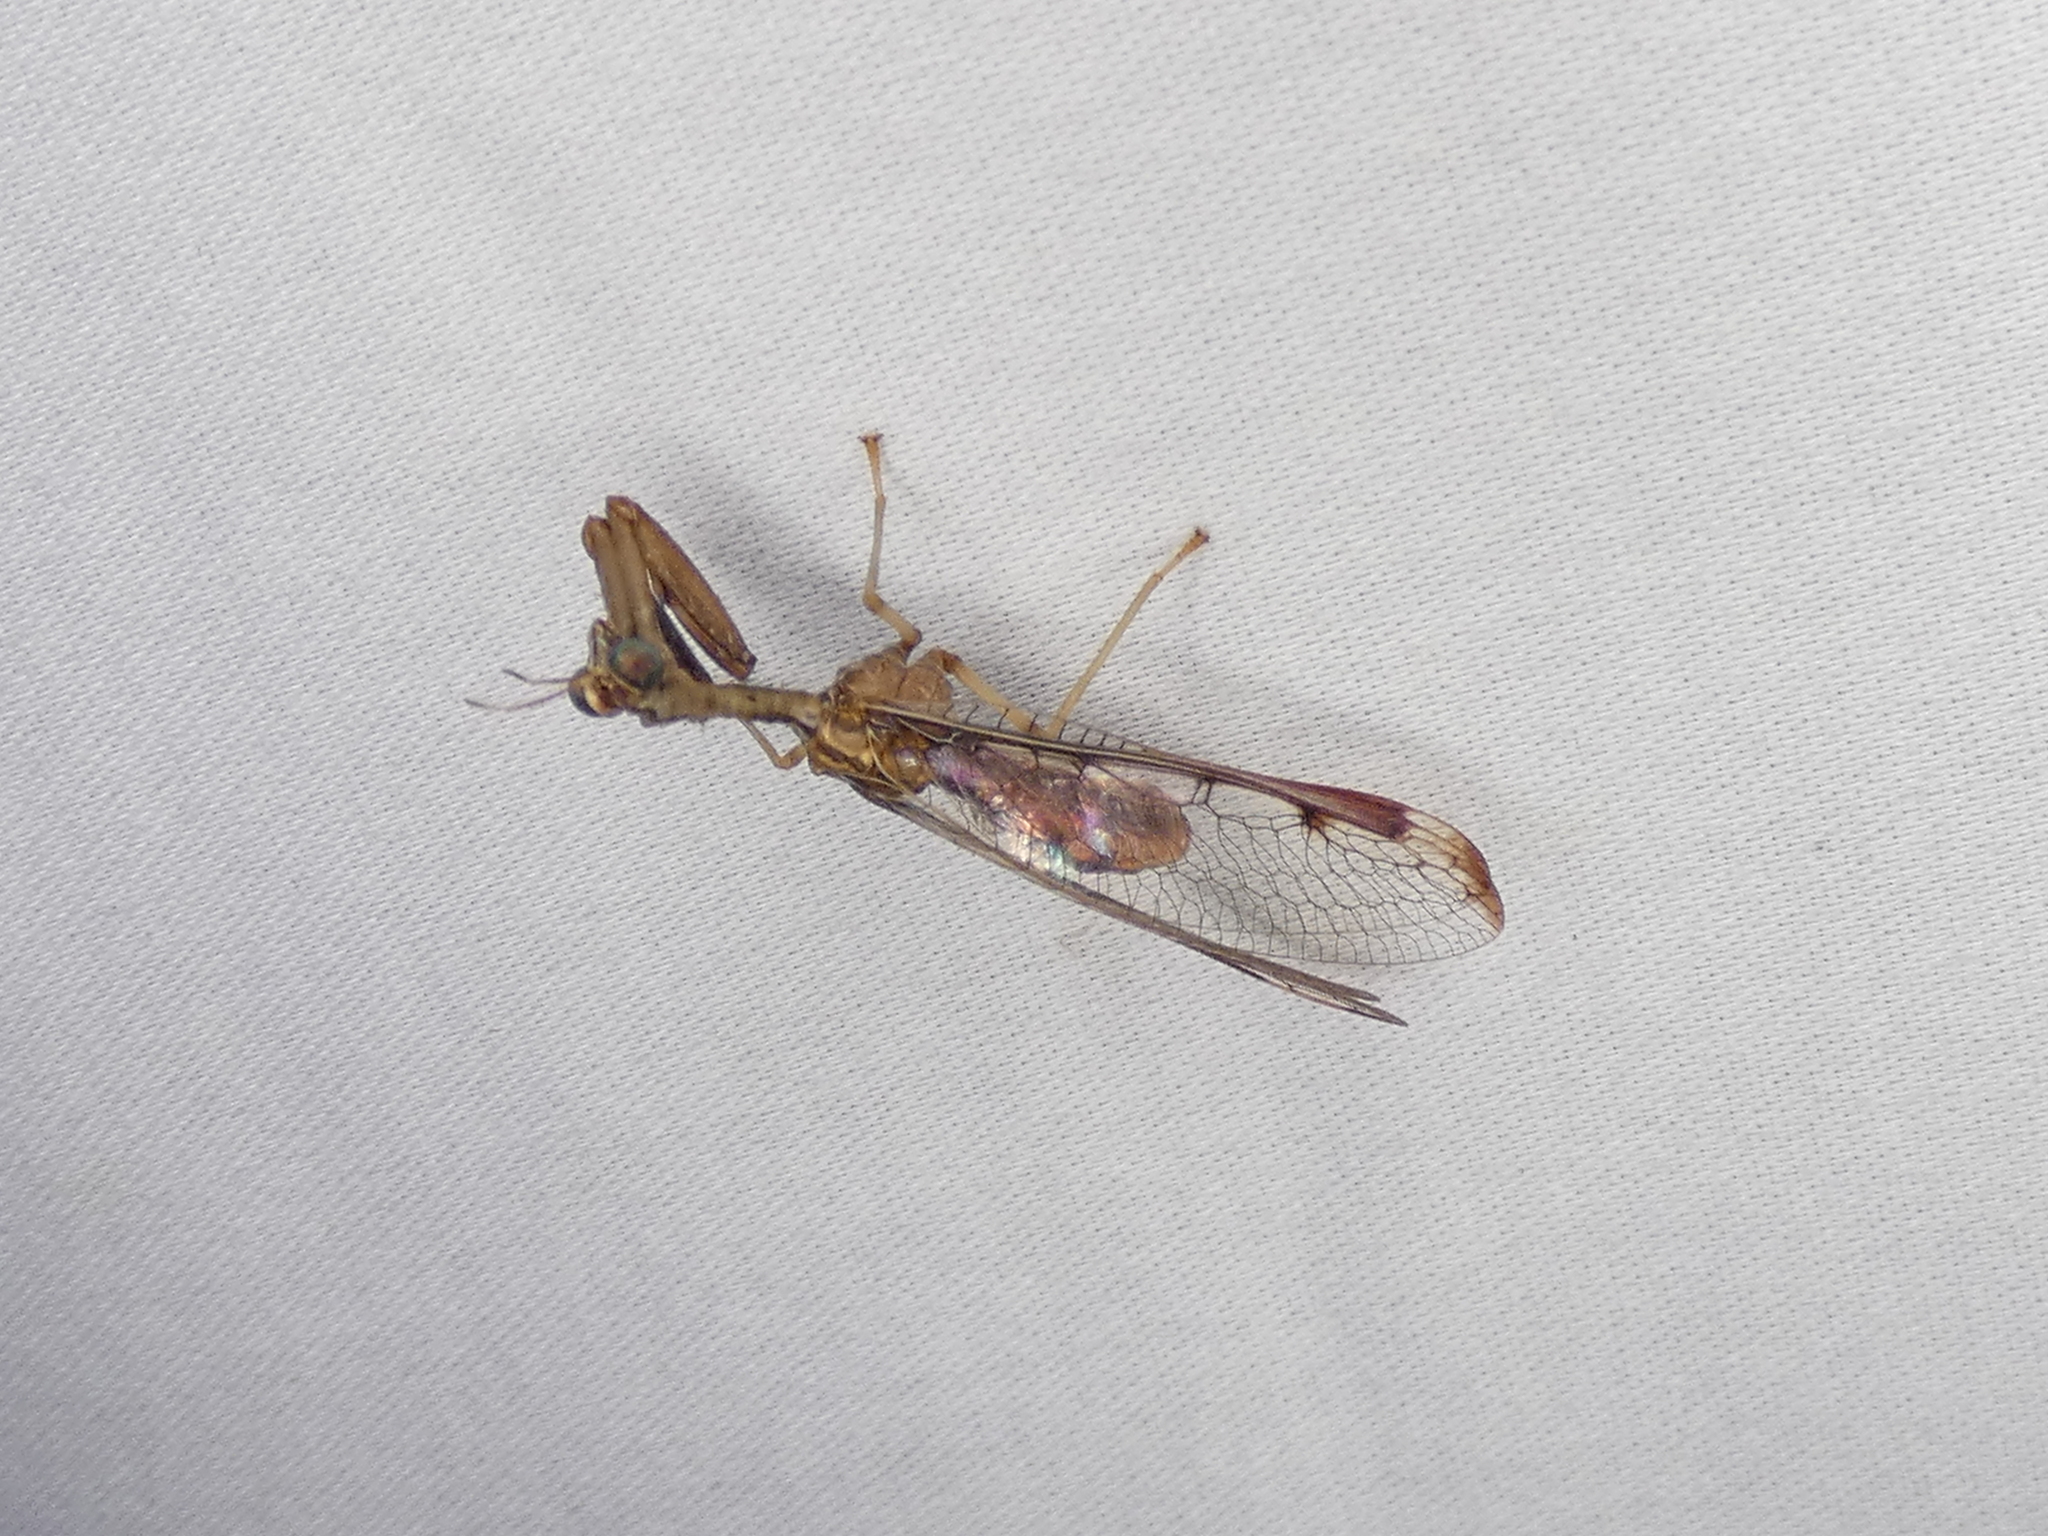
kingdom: Animalia
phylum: Arthropoda
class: Insecta
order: Neuroptera
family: Mantispidae
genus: Dicromantispa
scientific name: Dicromantispa interrupta
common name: Four-spotted mantidfly
